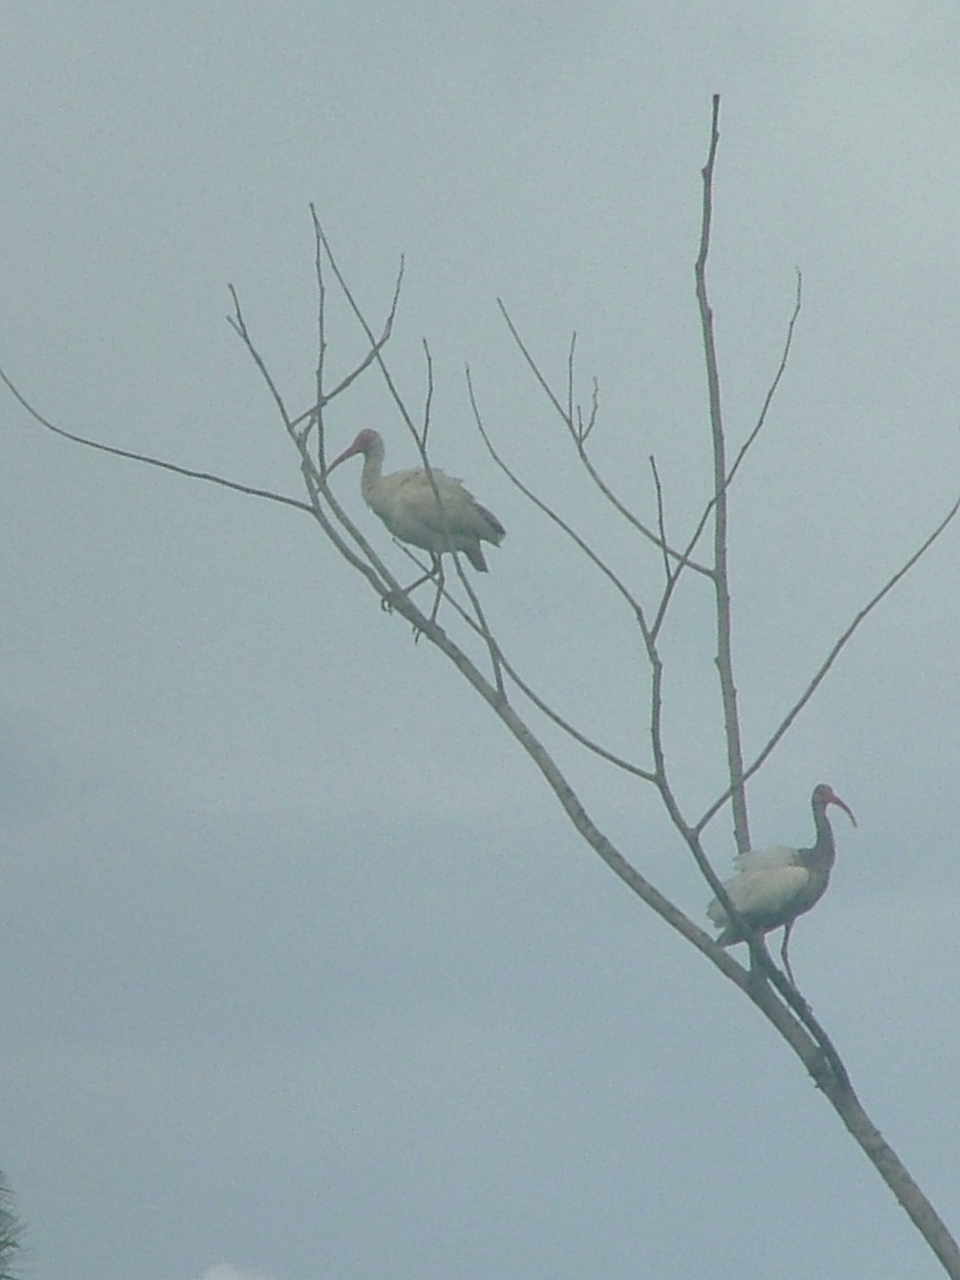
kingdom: Animalia
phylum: Chordata
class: Aves
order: Pelecaniformes
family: Threskiornithidae
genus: Eudocimus
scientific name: Eudocimus albus
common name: White ibis
